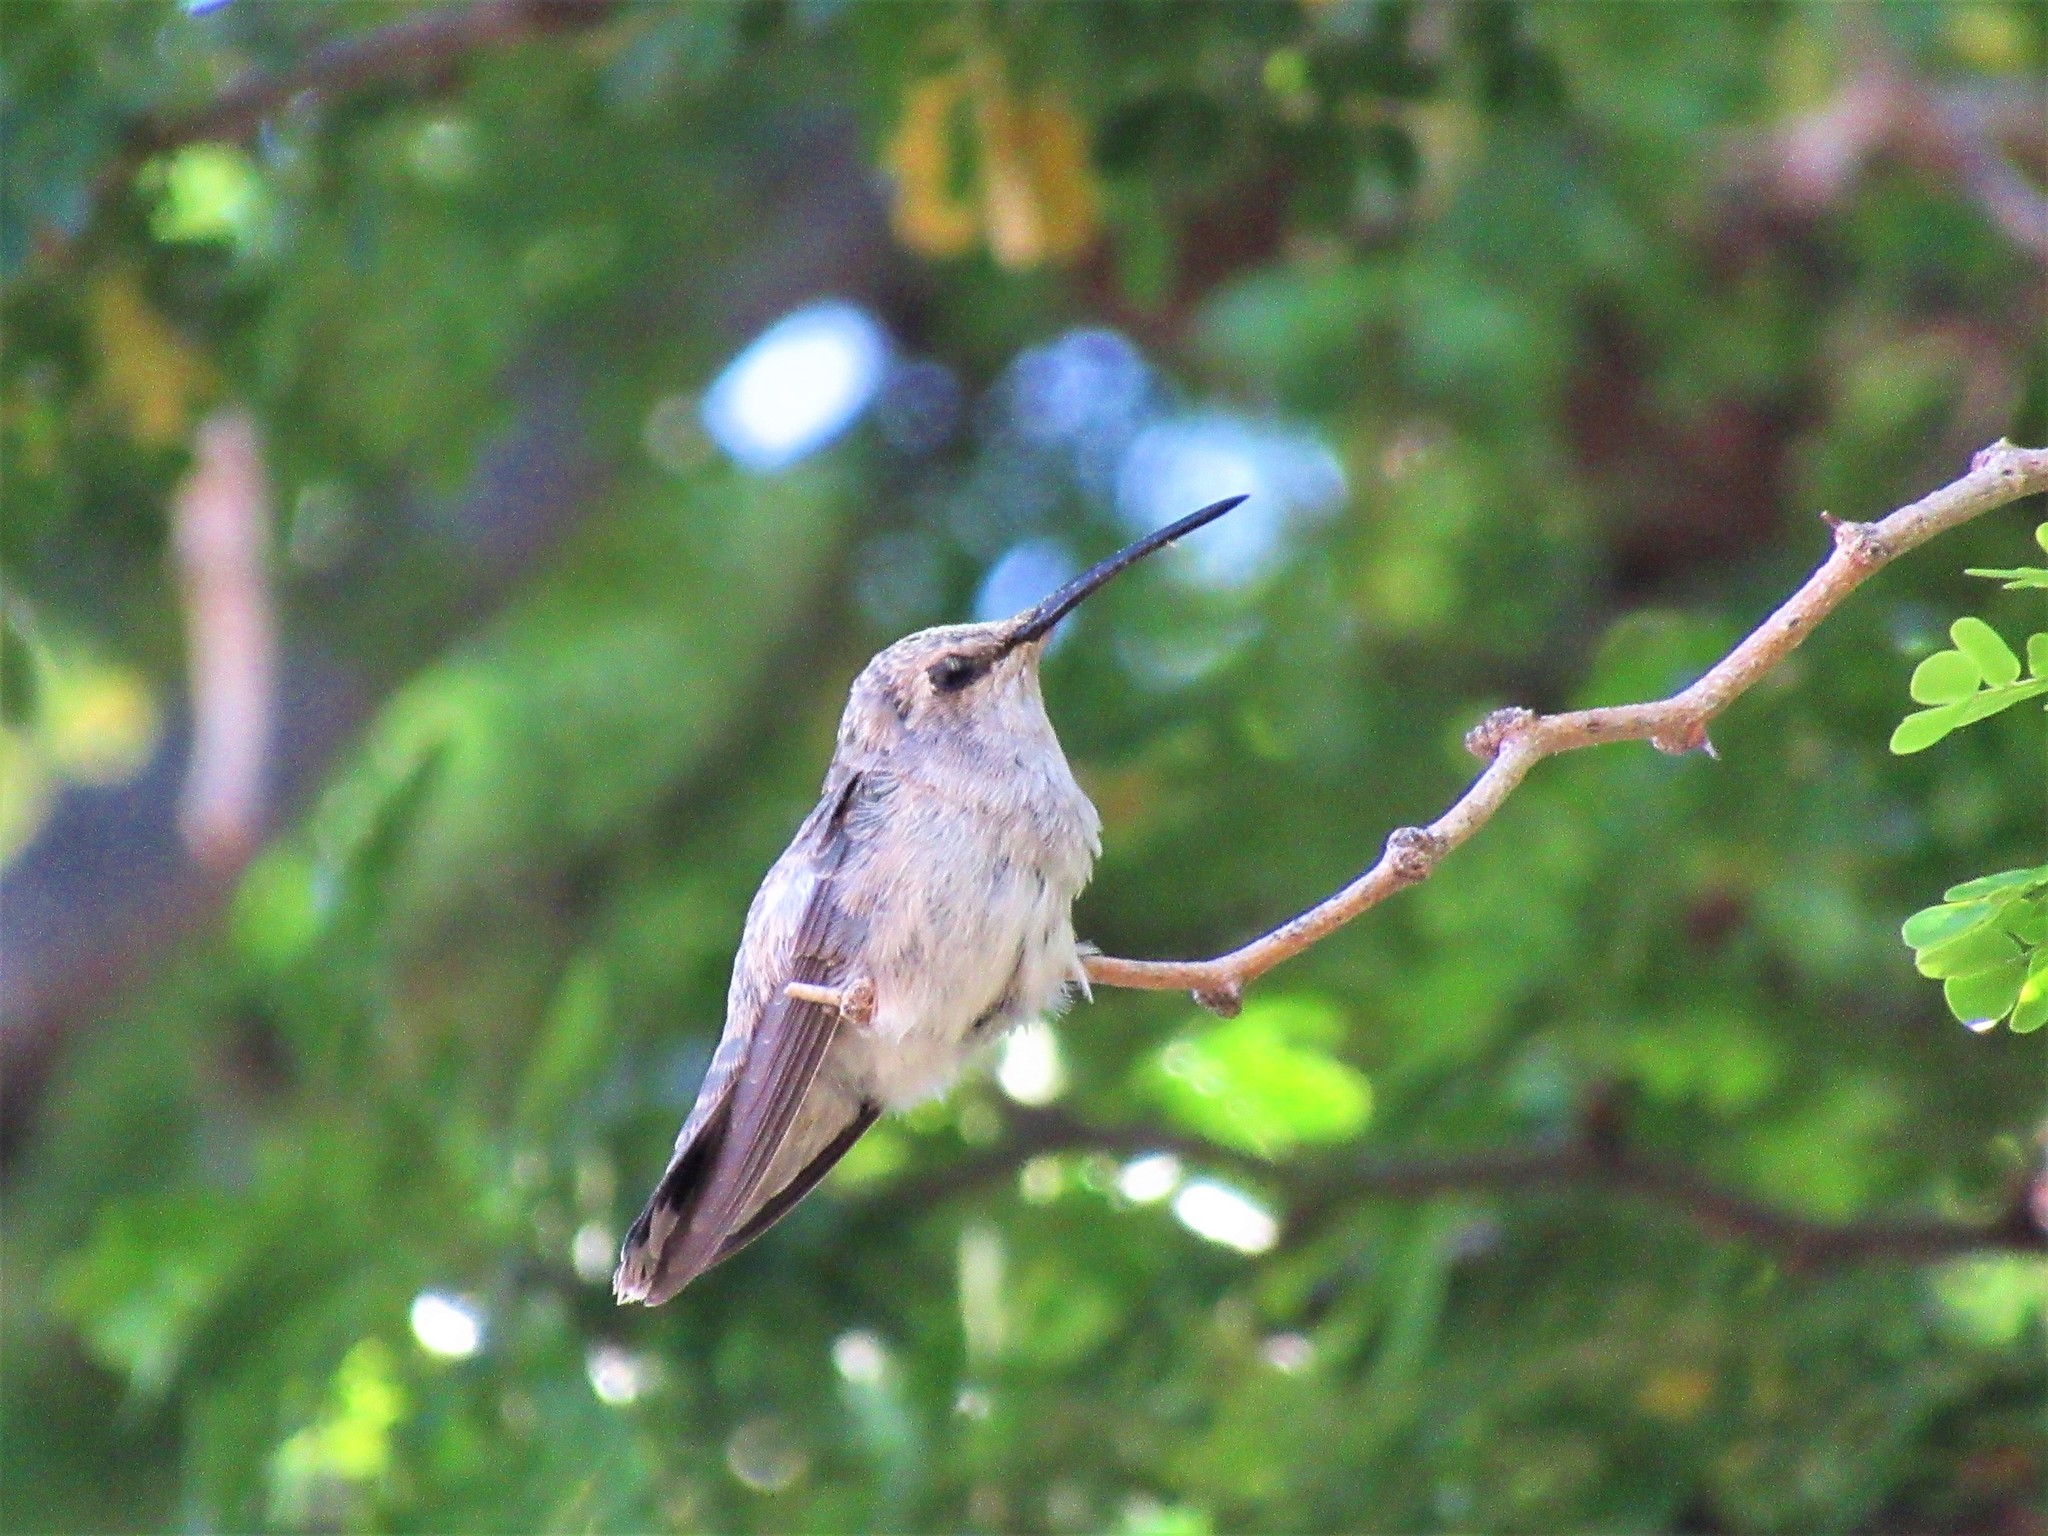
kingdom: Animalia
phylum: Chordata
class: Aves
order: Apodiformes
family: Trochilidae
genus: Calypte
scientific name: Calypte costae
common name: Costa's hummingbird
